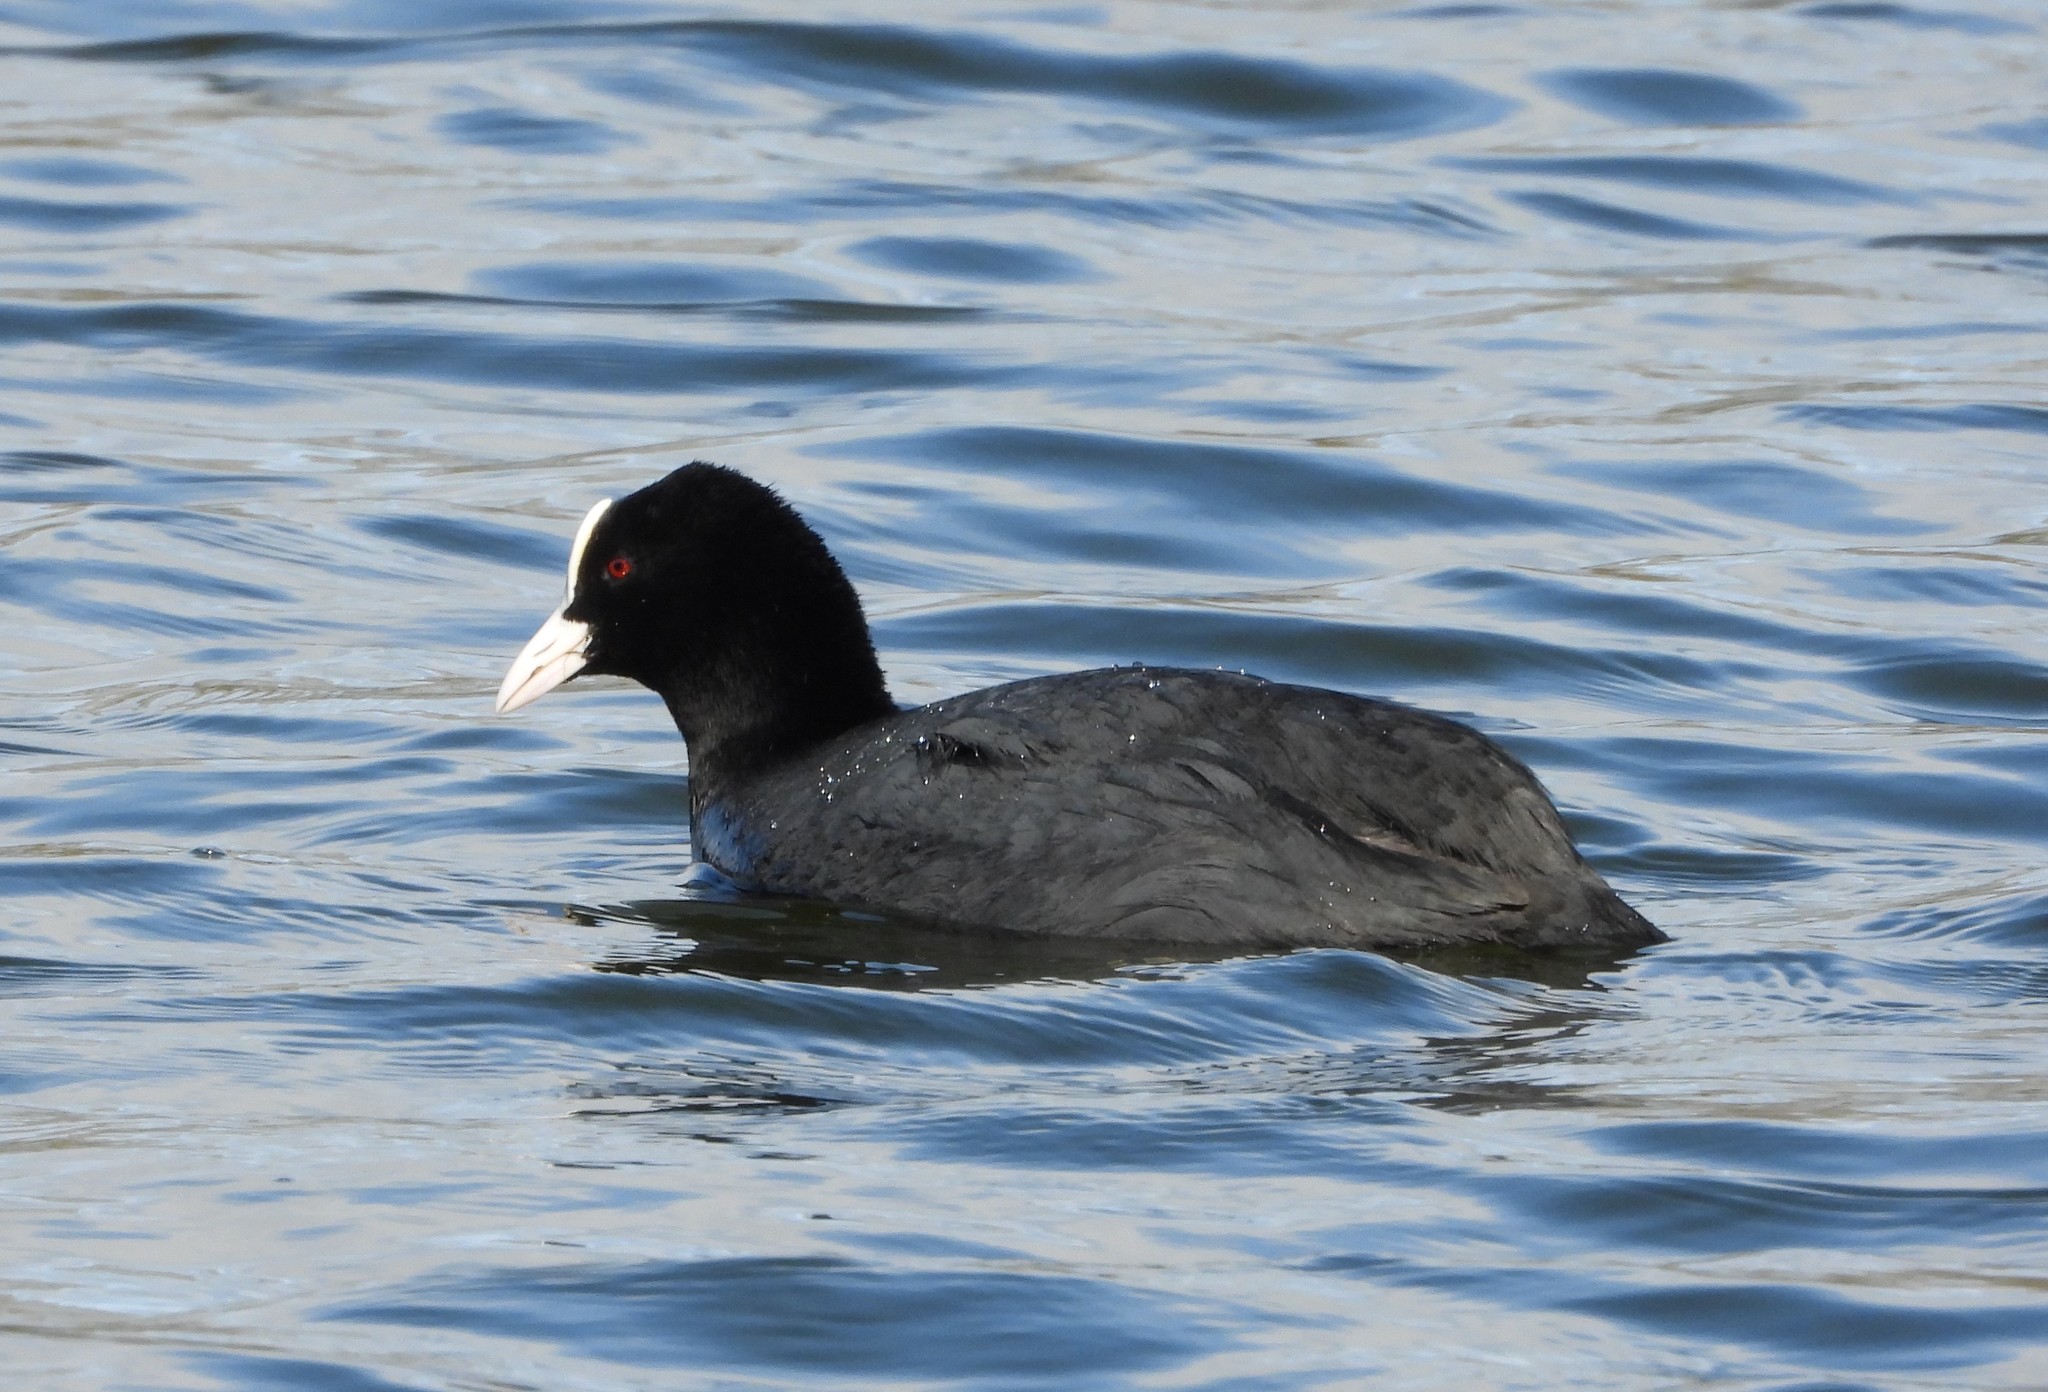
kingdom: Animalia
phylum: Chordata
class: Aves
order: Gruiformes
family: Rallidae
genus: Fulica
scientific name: Fulica atra
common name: Eurasian coot
